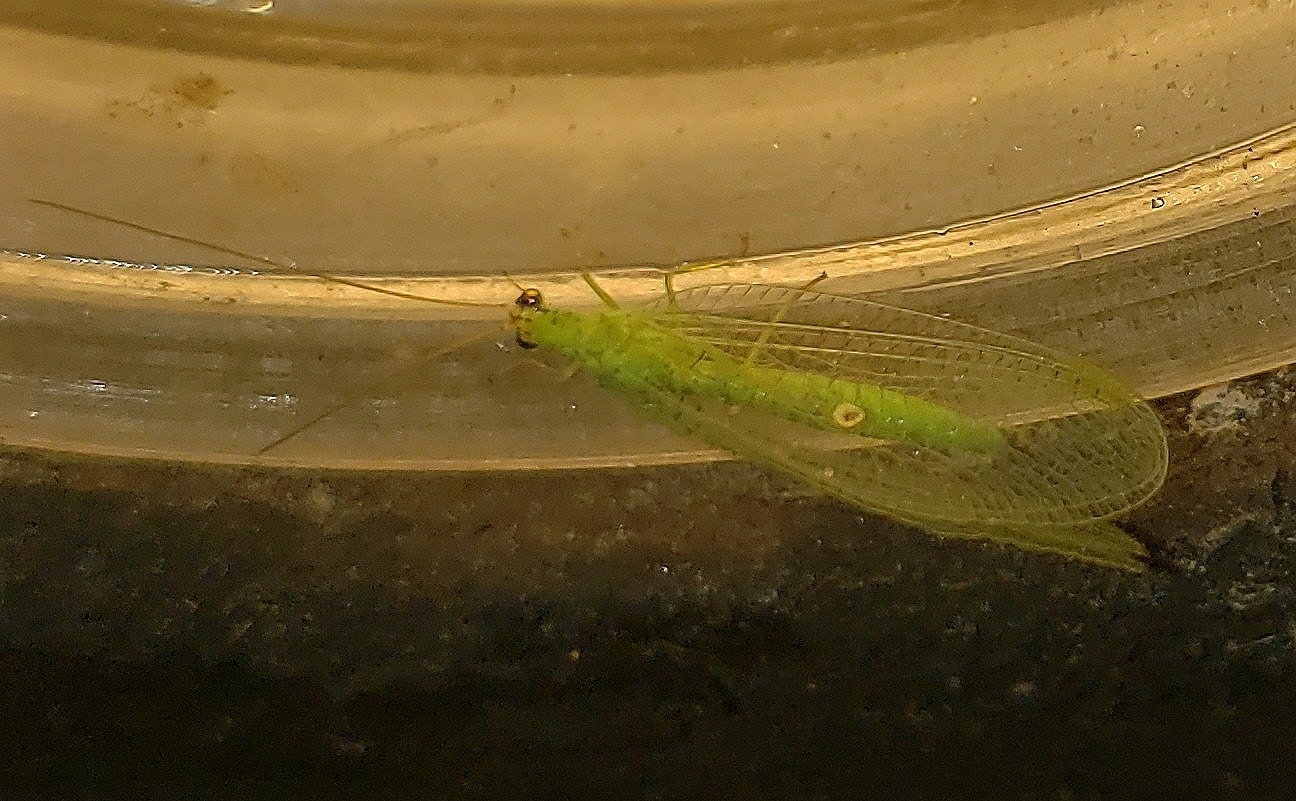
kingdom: Animalia
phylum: Arthropoda
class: Insecta
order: Neuroptera
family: Chrysopidae
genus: Chrysopa
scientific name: Chrysopa oculata
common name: Golden-eyed lacewing
